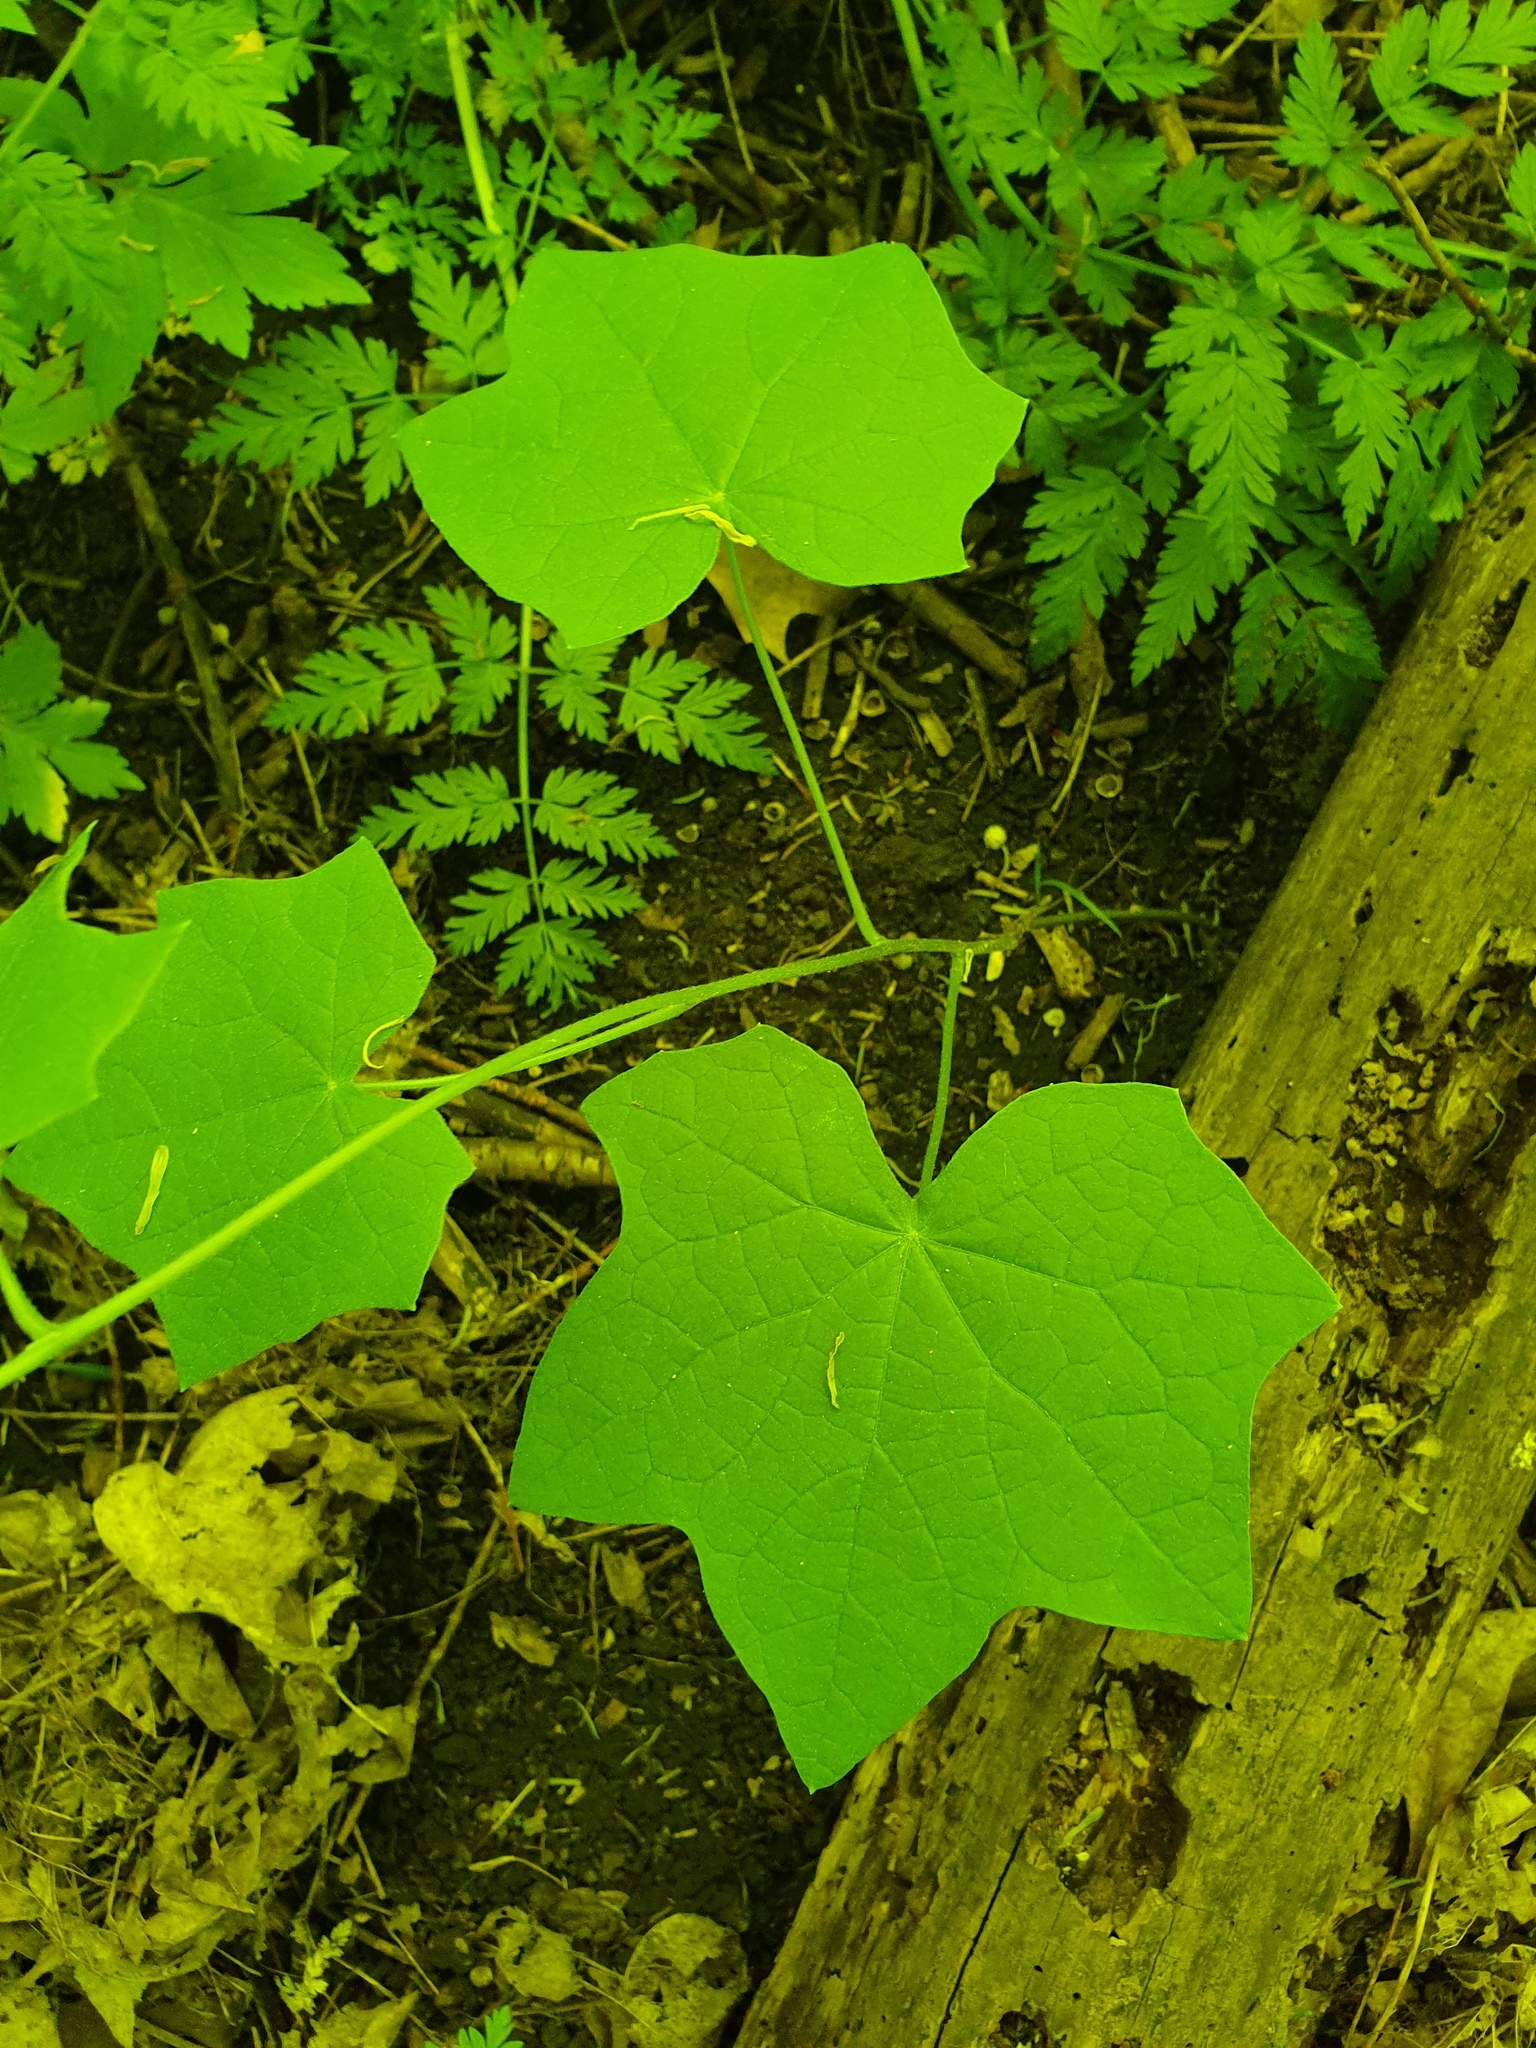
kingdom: Plantae
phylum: Tracheophyta
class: Magnoliopsida
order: Ranunculales
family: Menispermaceae
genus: Menispermum
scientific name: Menispermum canadense
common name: Moonseed
